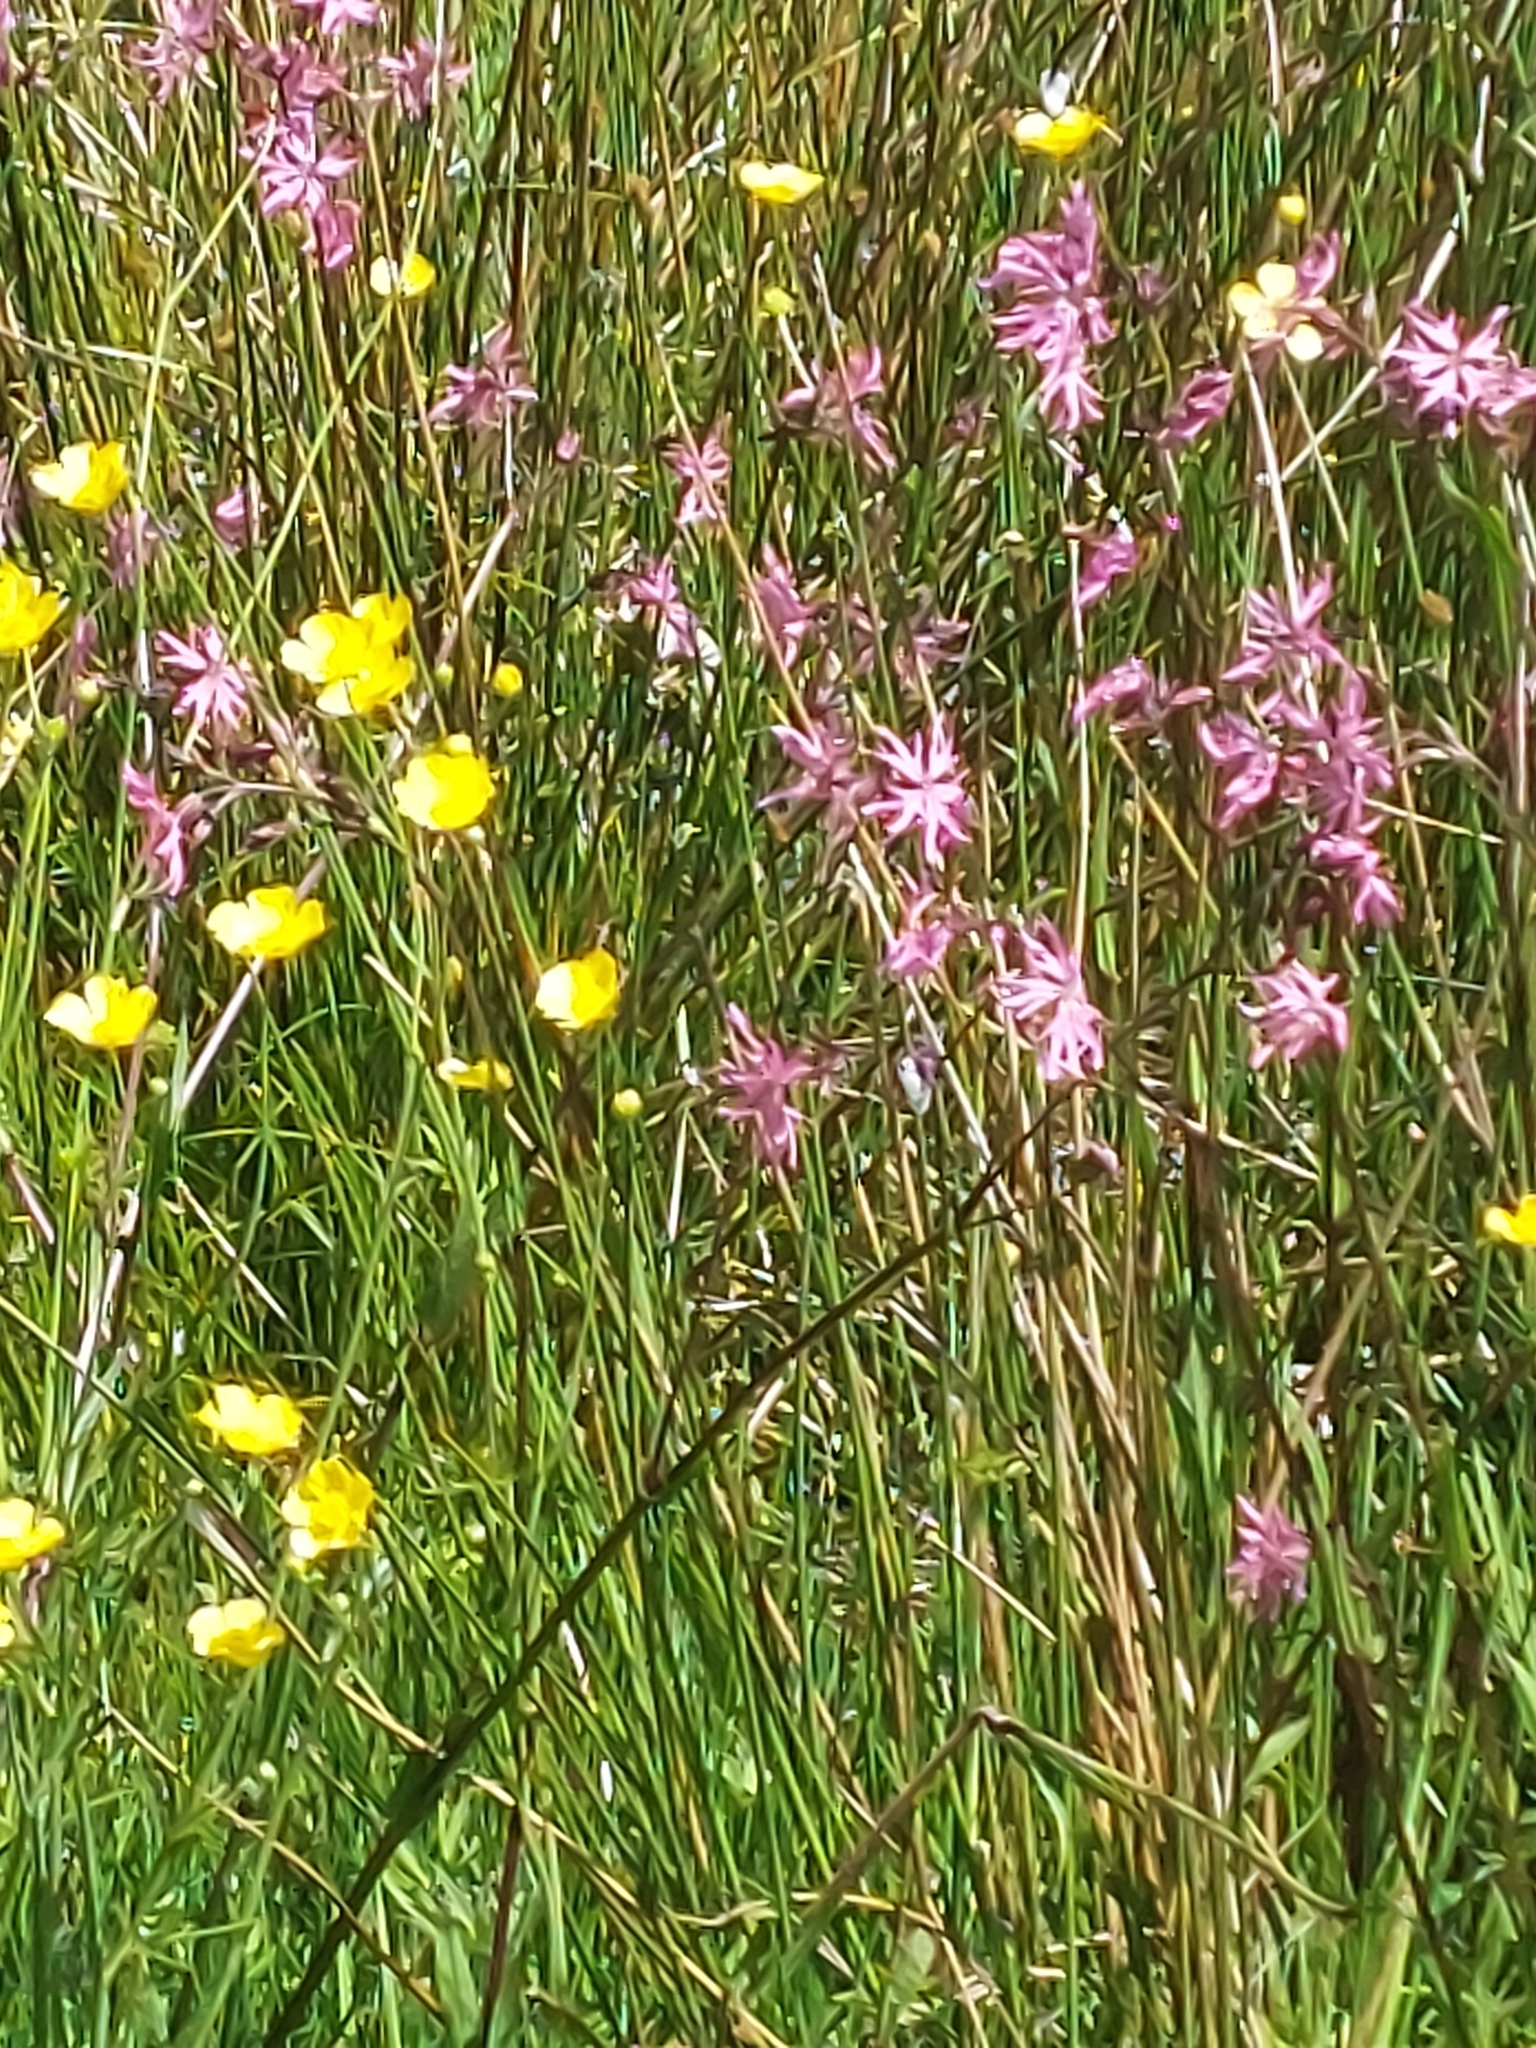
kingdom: Plantae
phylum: Tracheophyta
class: Magnoliopsida
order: Caryophyllales
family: Caryophyllaceae
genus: Silene
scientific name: Silene flos-cuculi
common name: Ragged-robin
